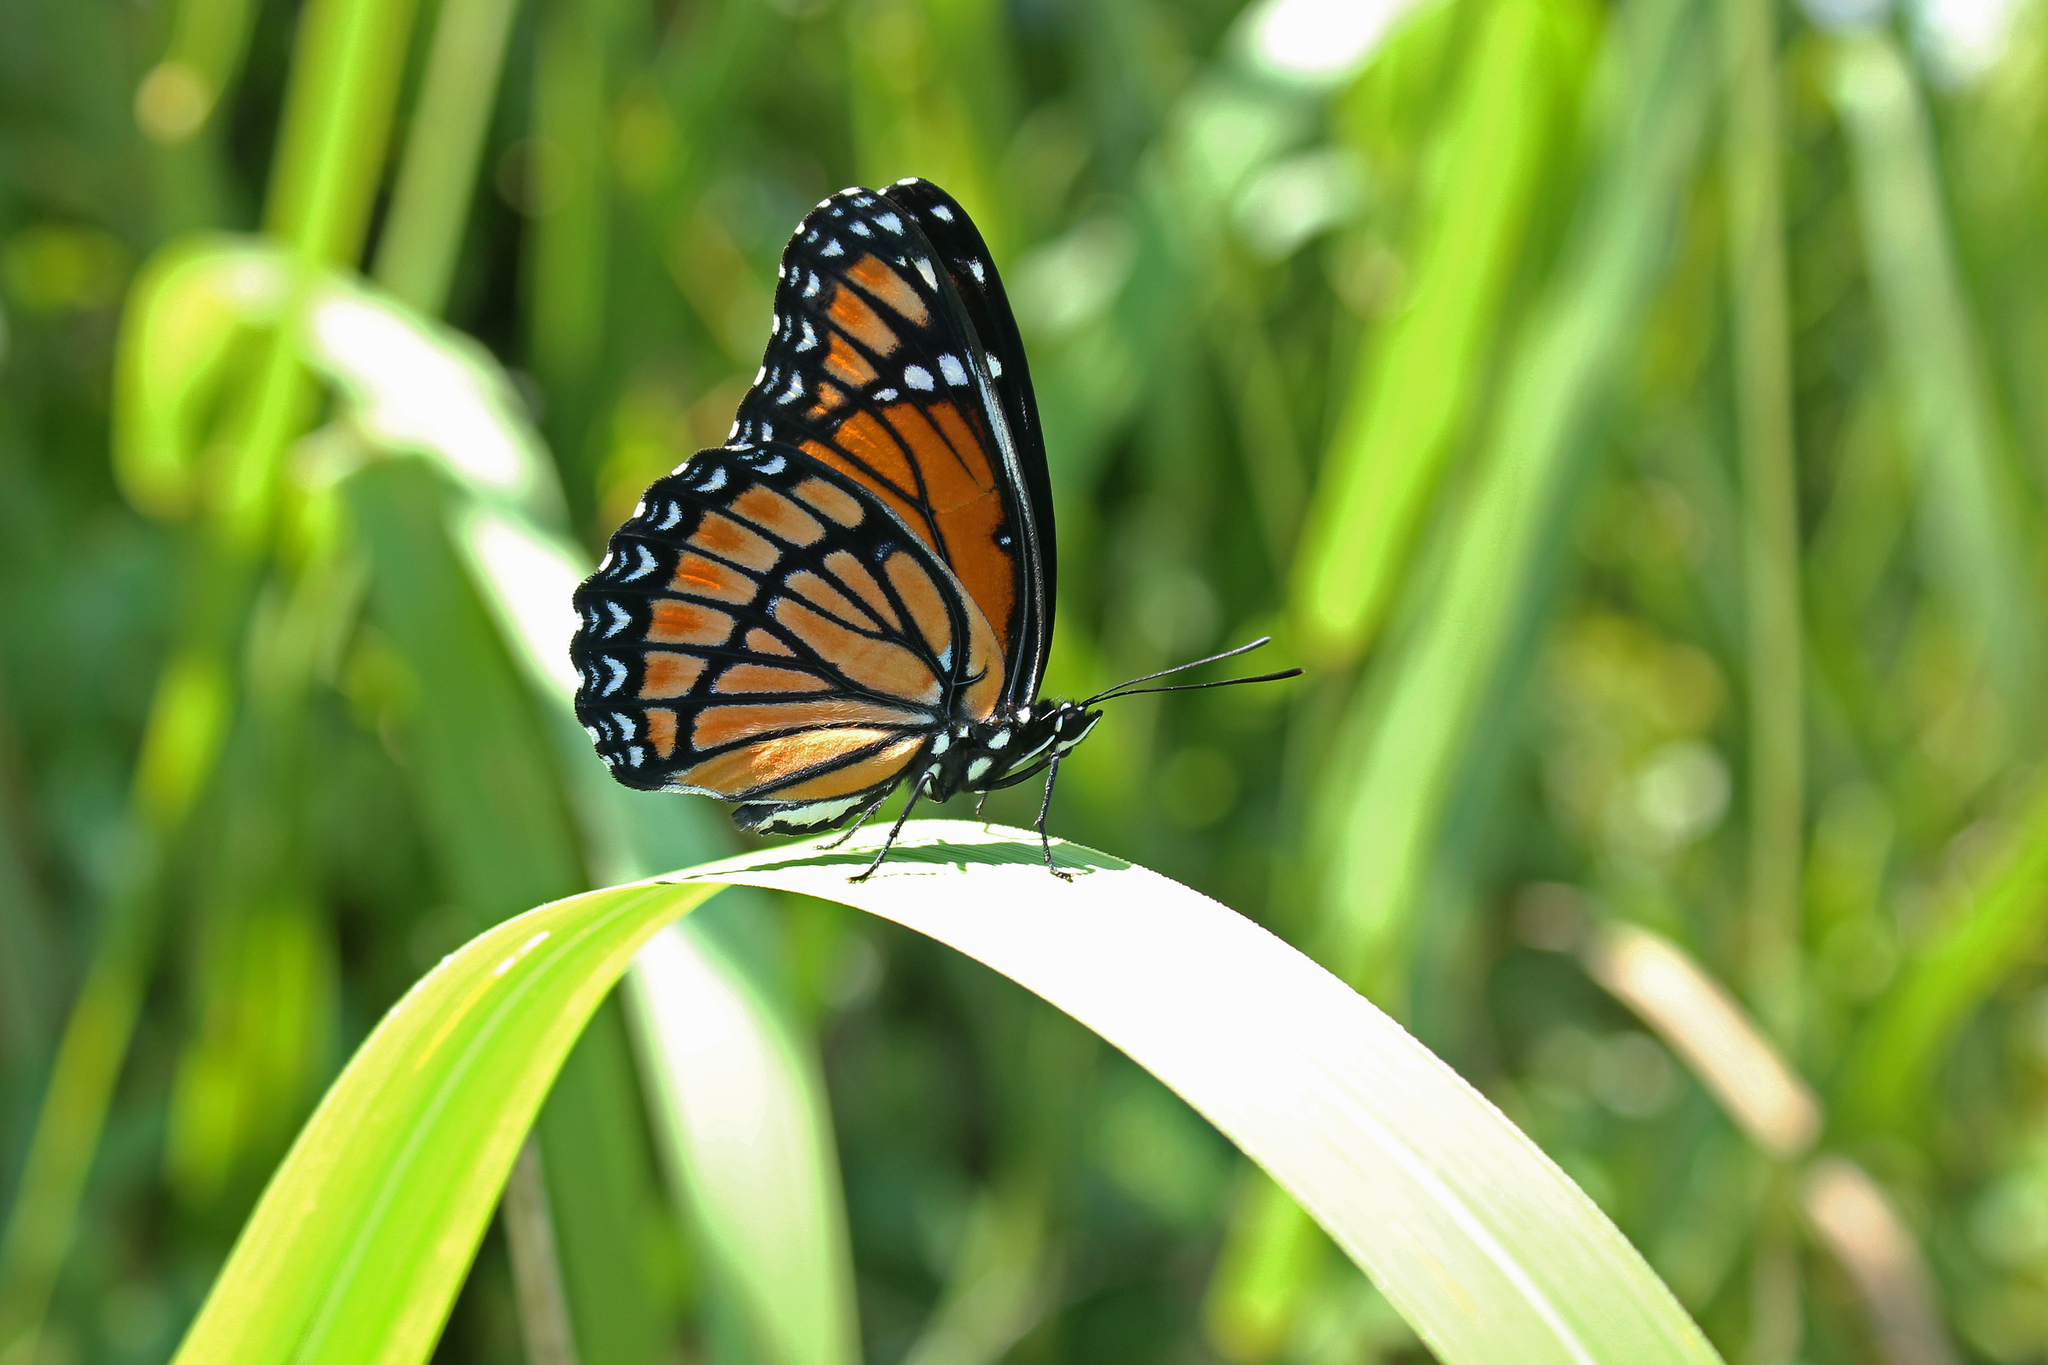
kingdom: Animalia
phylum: Arthropoda
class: Insecta
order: Lepidoptera
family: Nymphalidae
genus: Limenitis
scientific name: Limenitis archippus
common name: Viceroy
